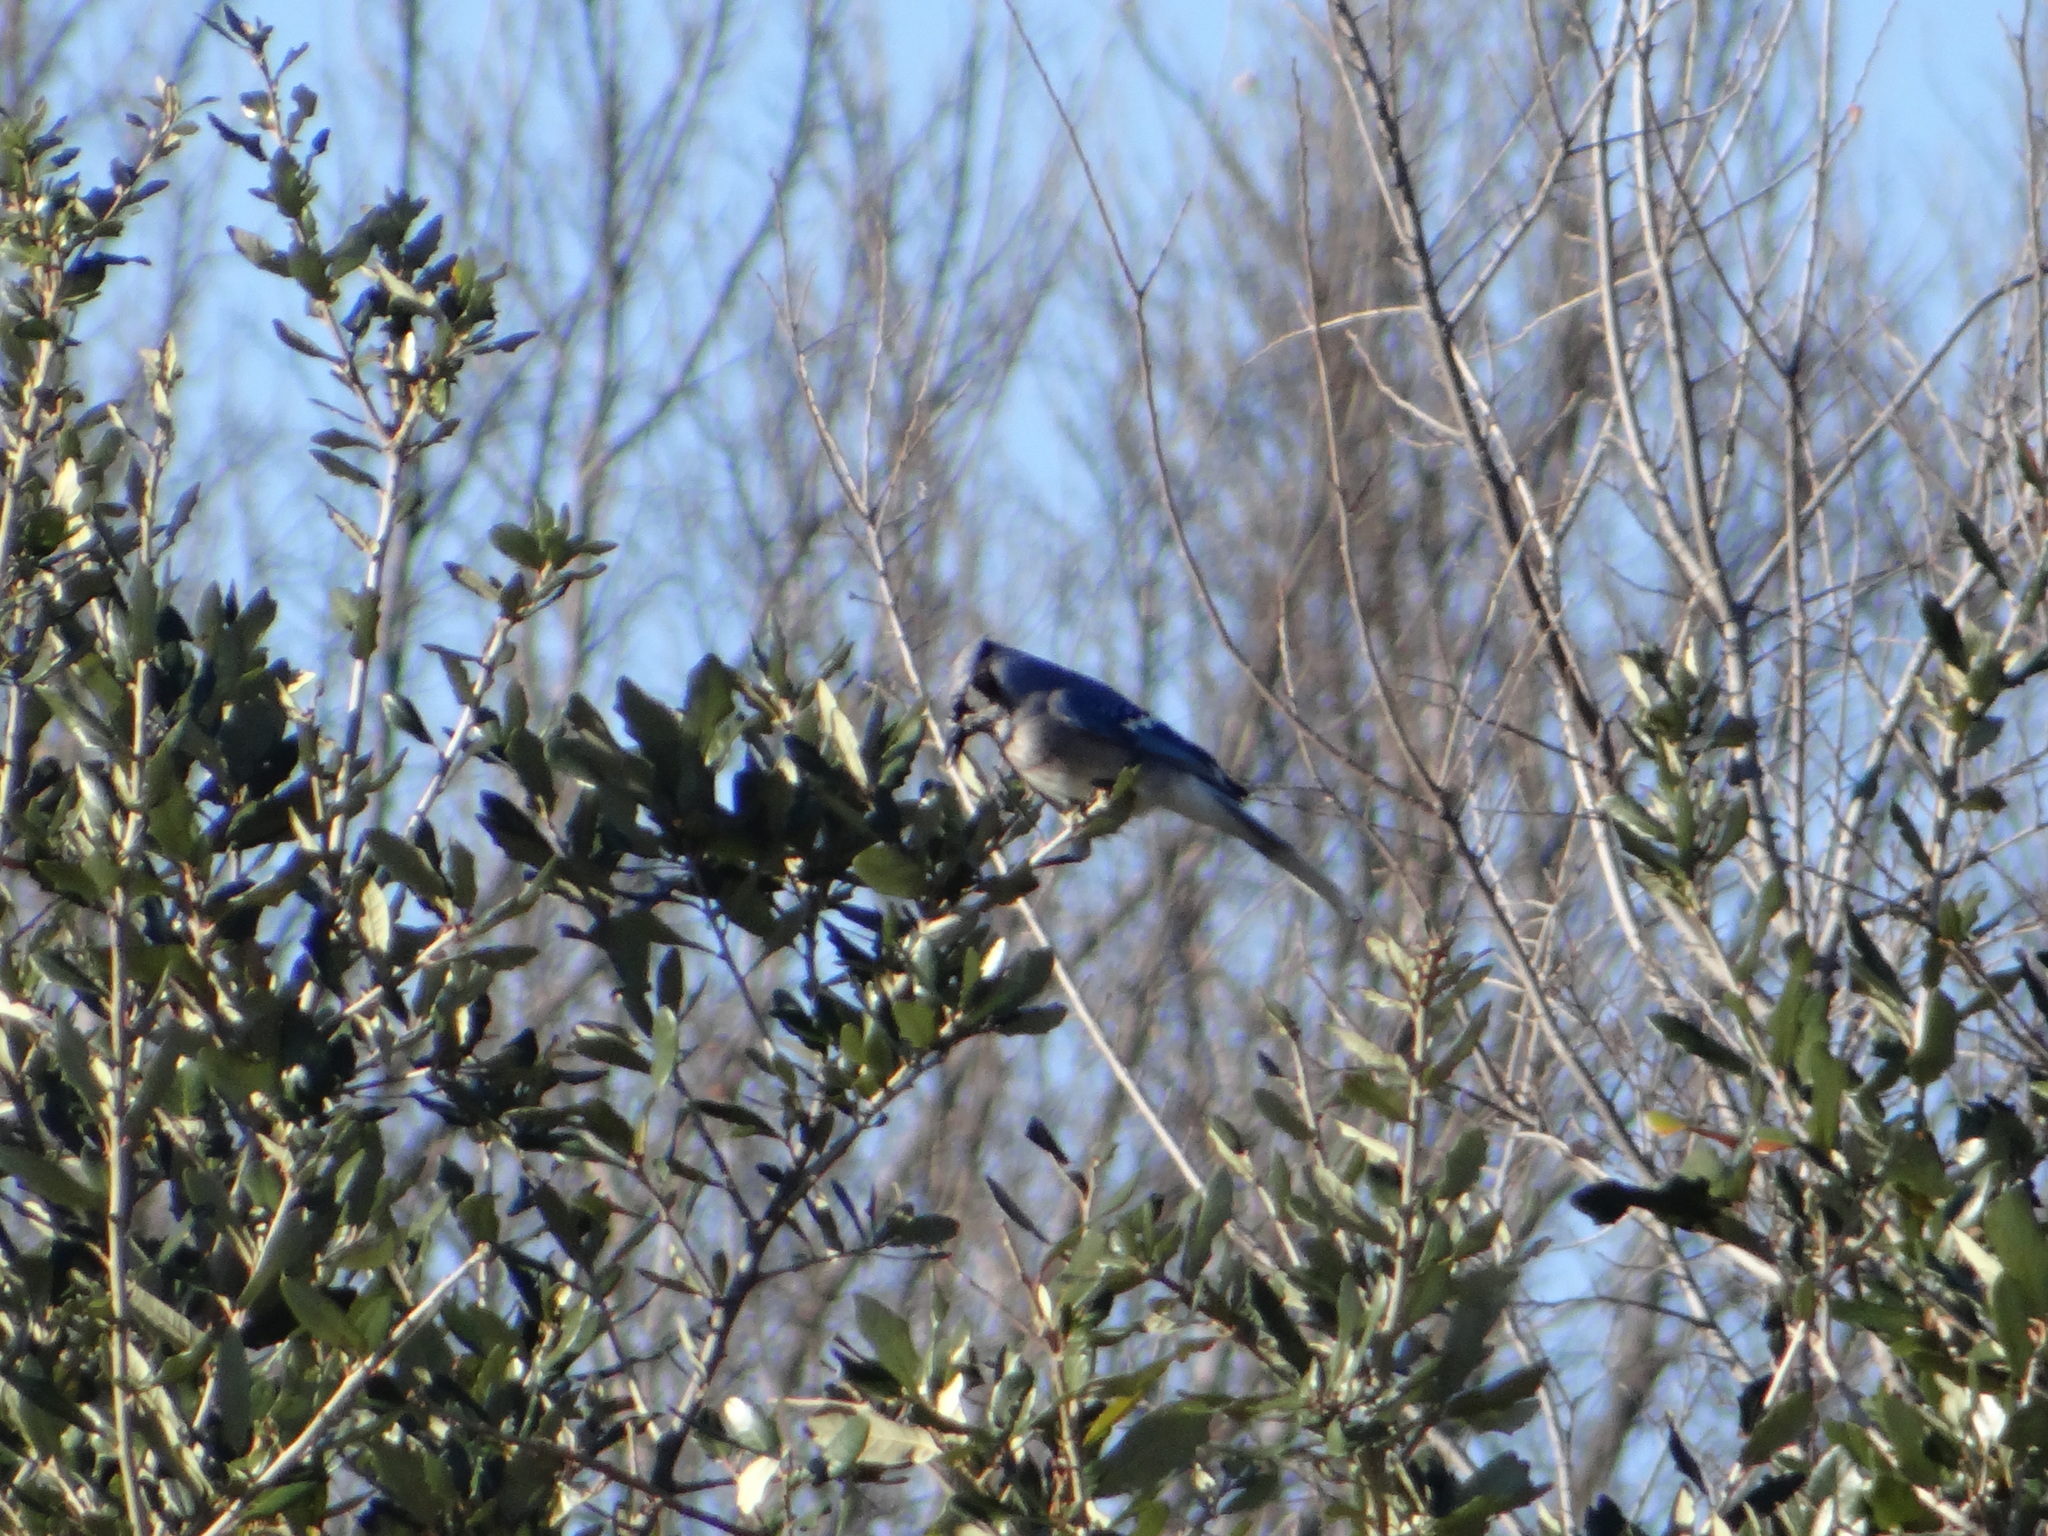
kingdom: Animalia
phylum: Chordata
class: Aves
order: Passeriformes
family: Corvidae
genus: Cyanocitta
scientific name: Cyanocitta cristata
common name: Blue jay
